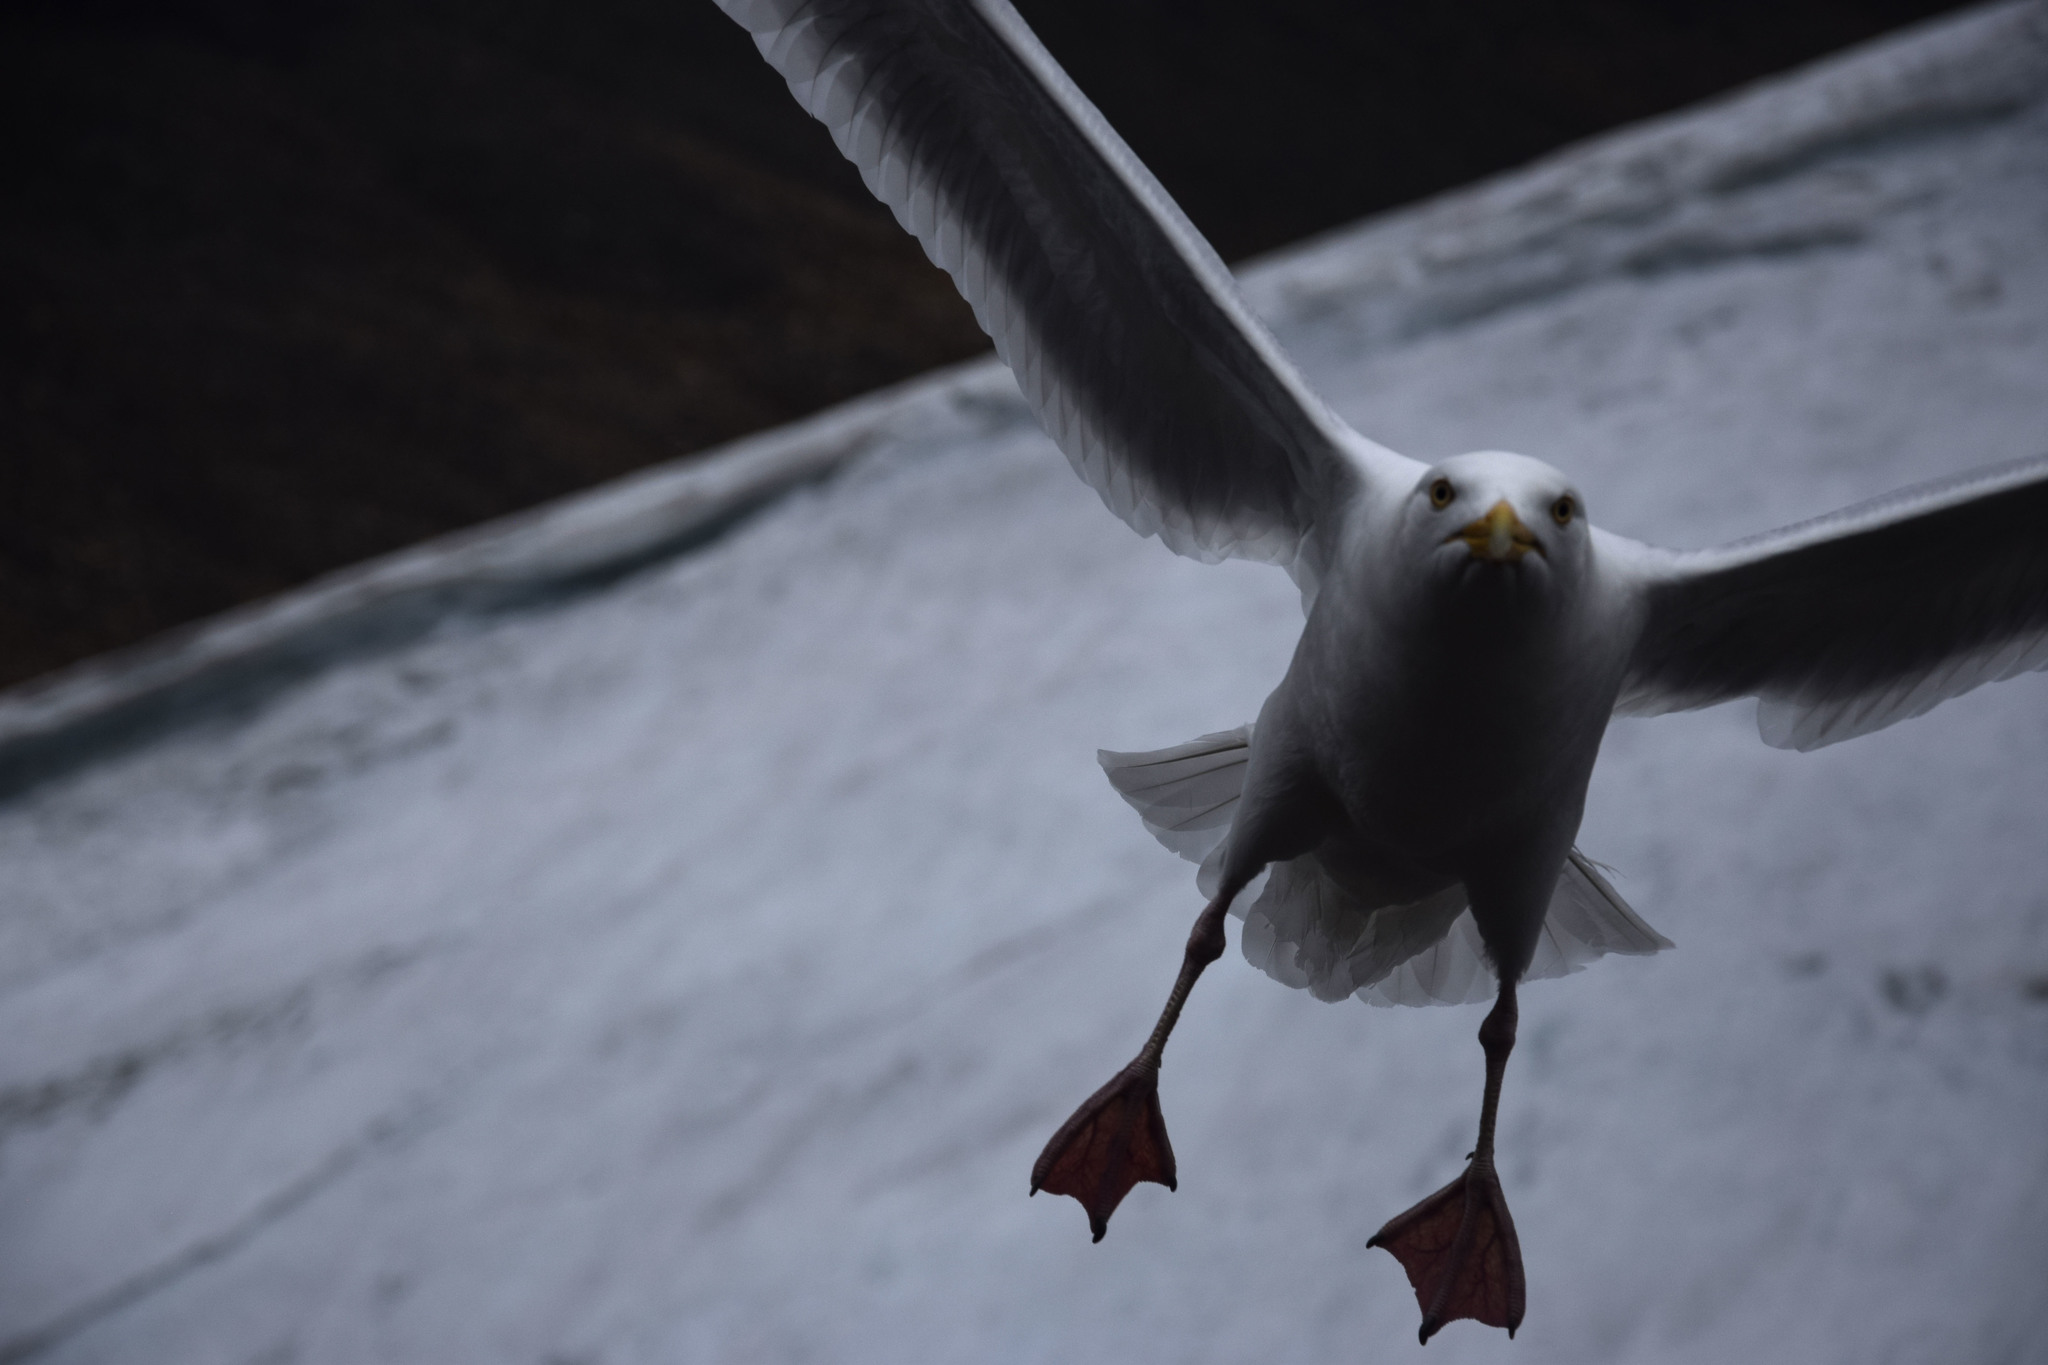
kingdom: Animalia
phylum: Chordata
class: Aves
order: Charadriiformes
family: Laridae
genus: Larus
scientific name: Larus hyperboreus
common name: Glaucous gull
